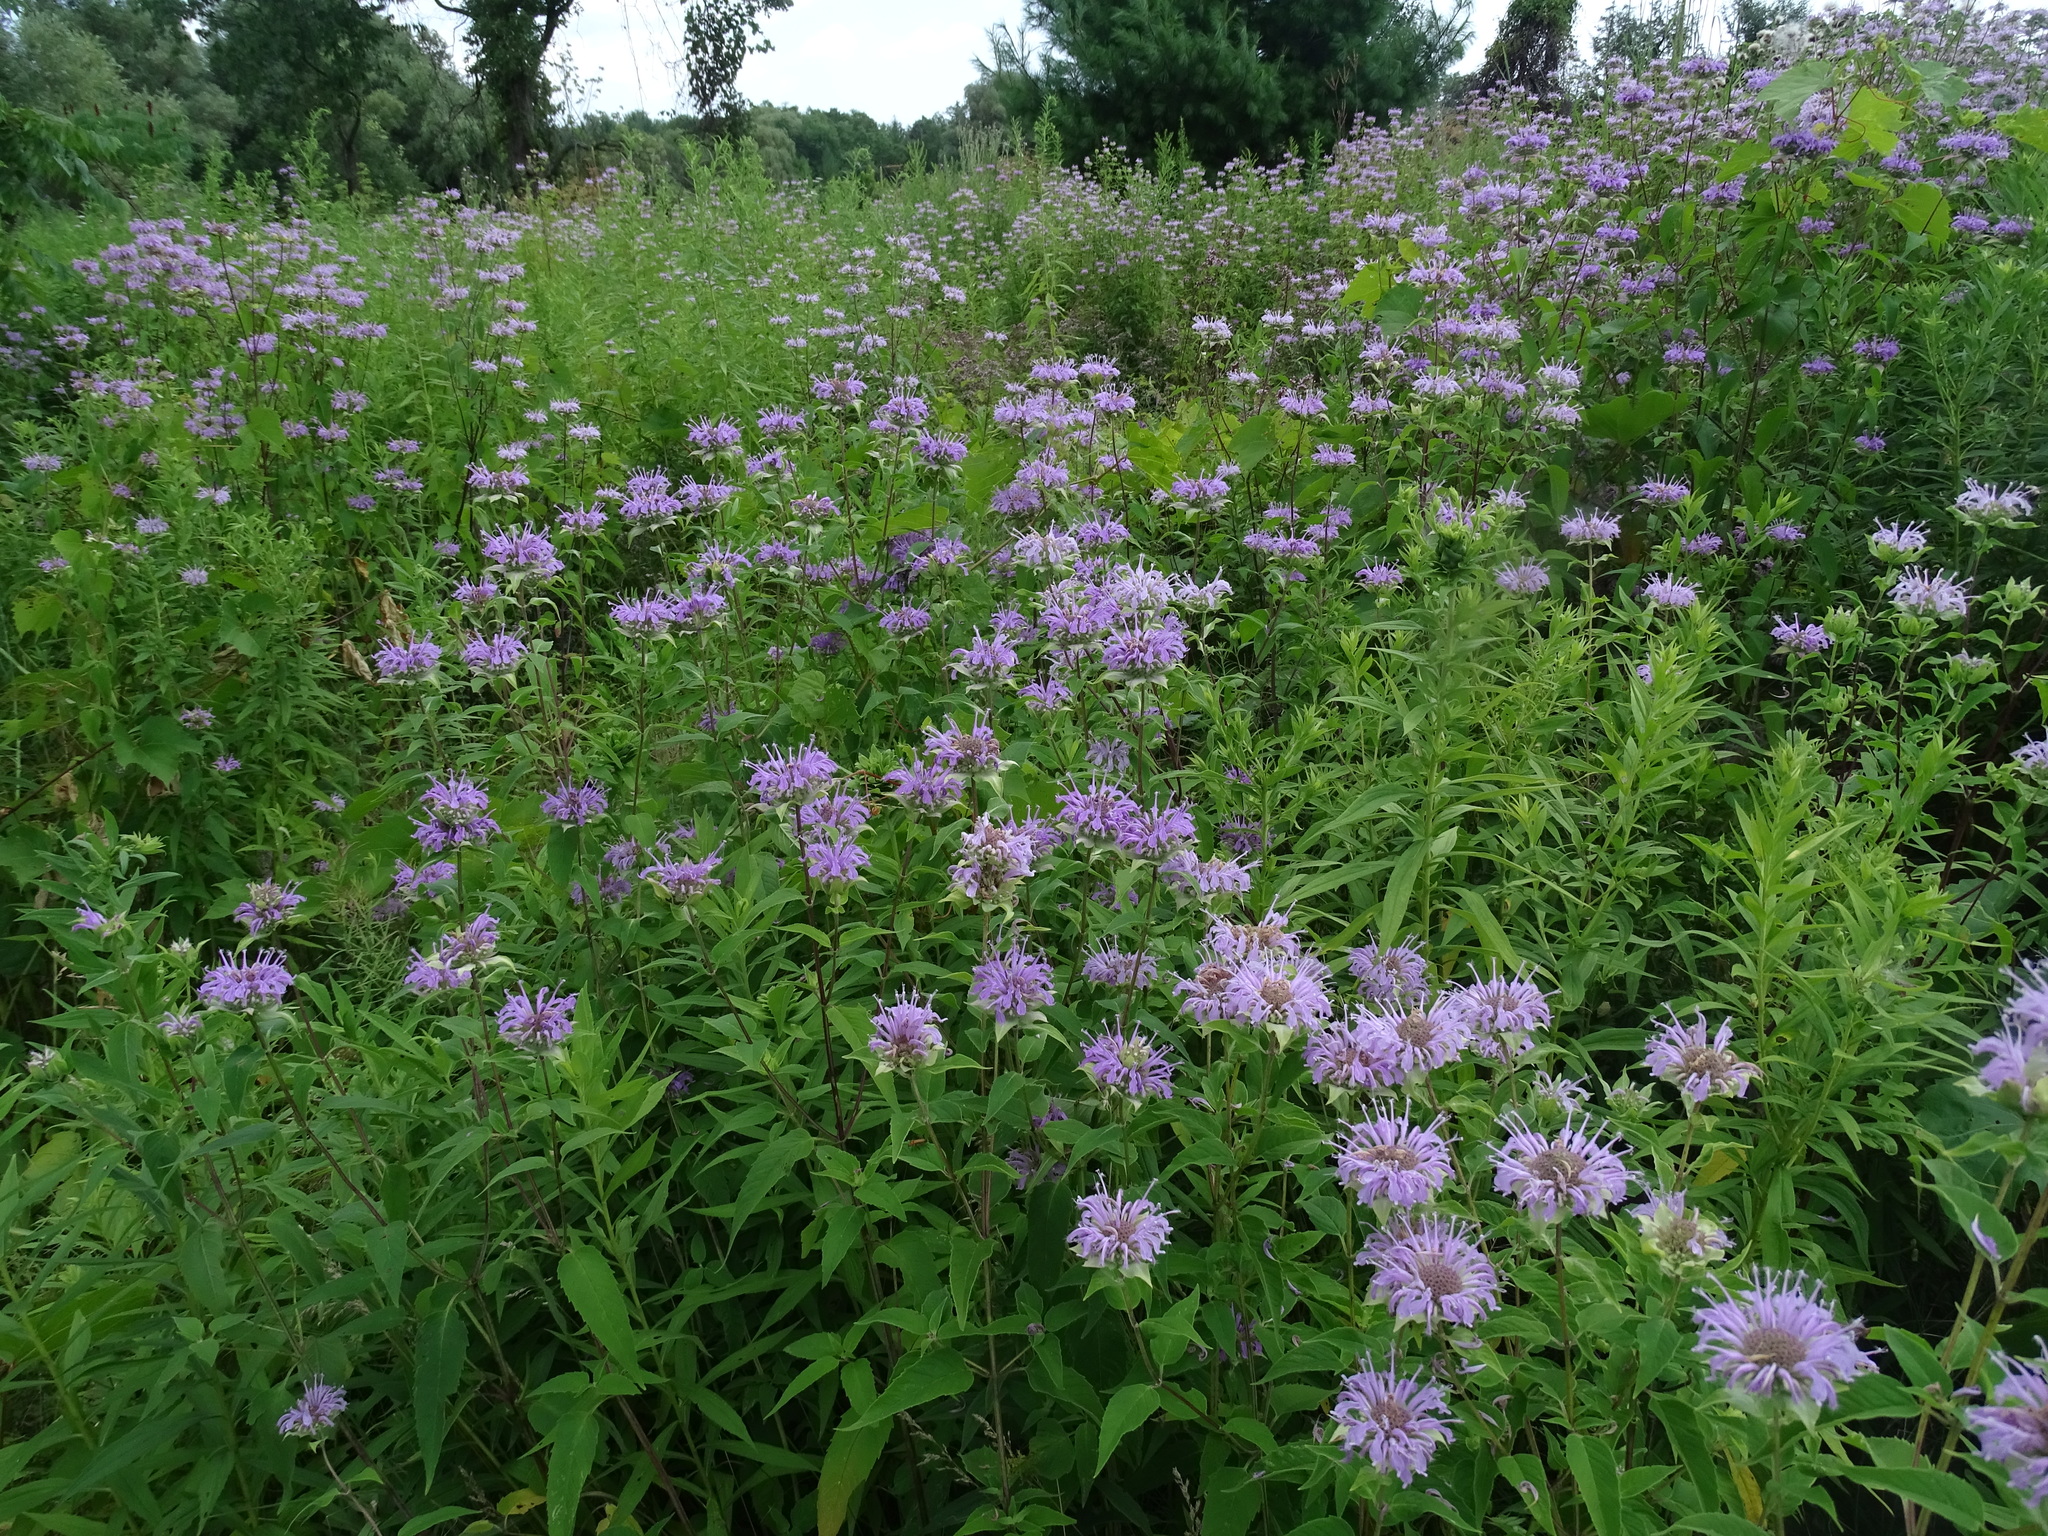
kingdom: Plantae
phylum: Tracheophyta
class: Magnoliopsida
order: Lamiales
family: Lamiaceae
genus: Monarda
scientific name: Monarda fistulosa
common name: Purple beebalm
